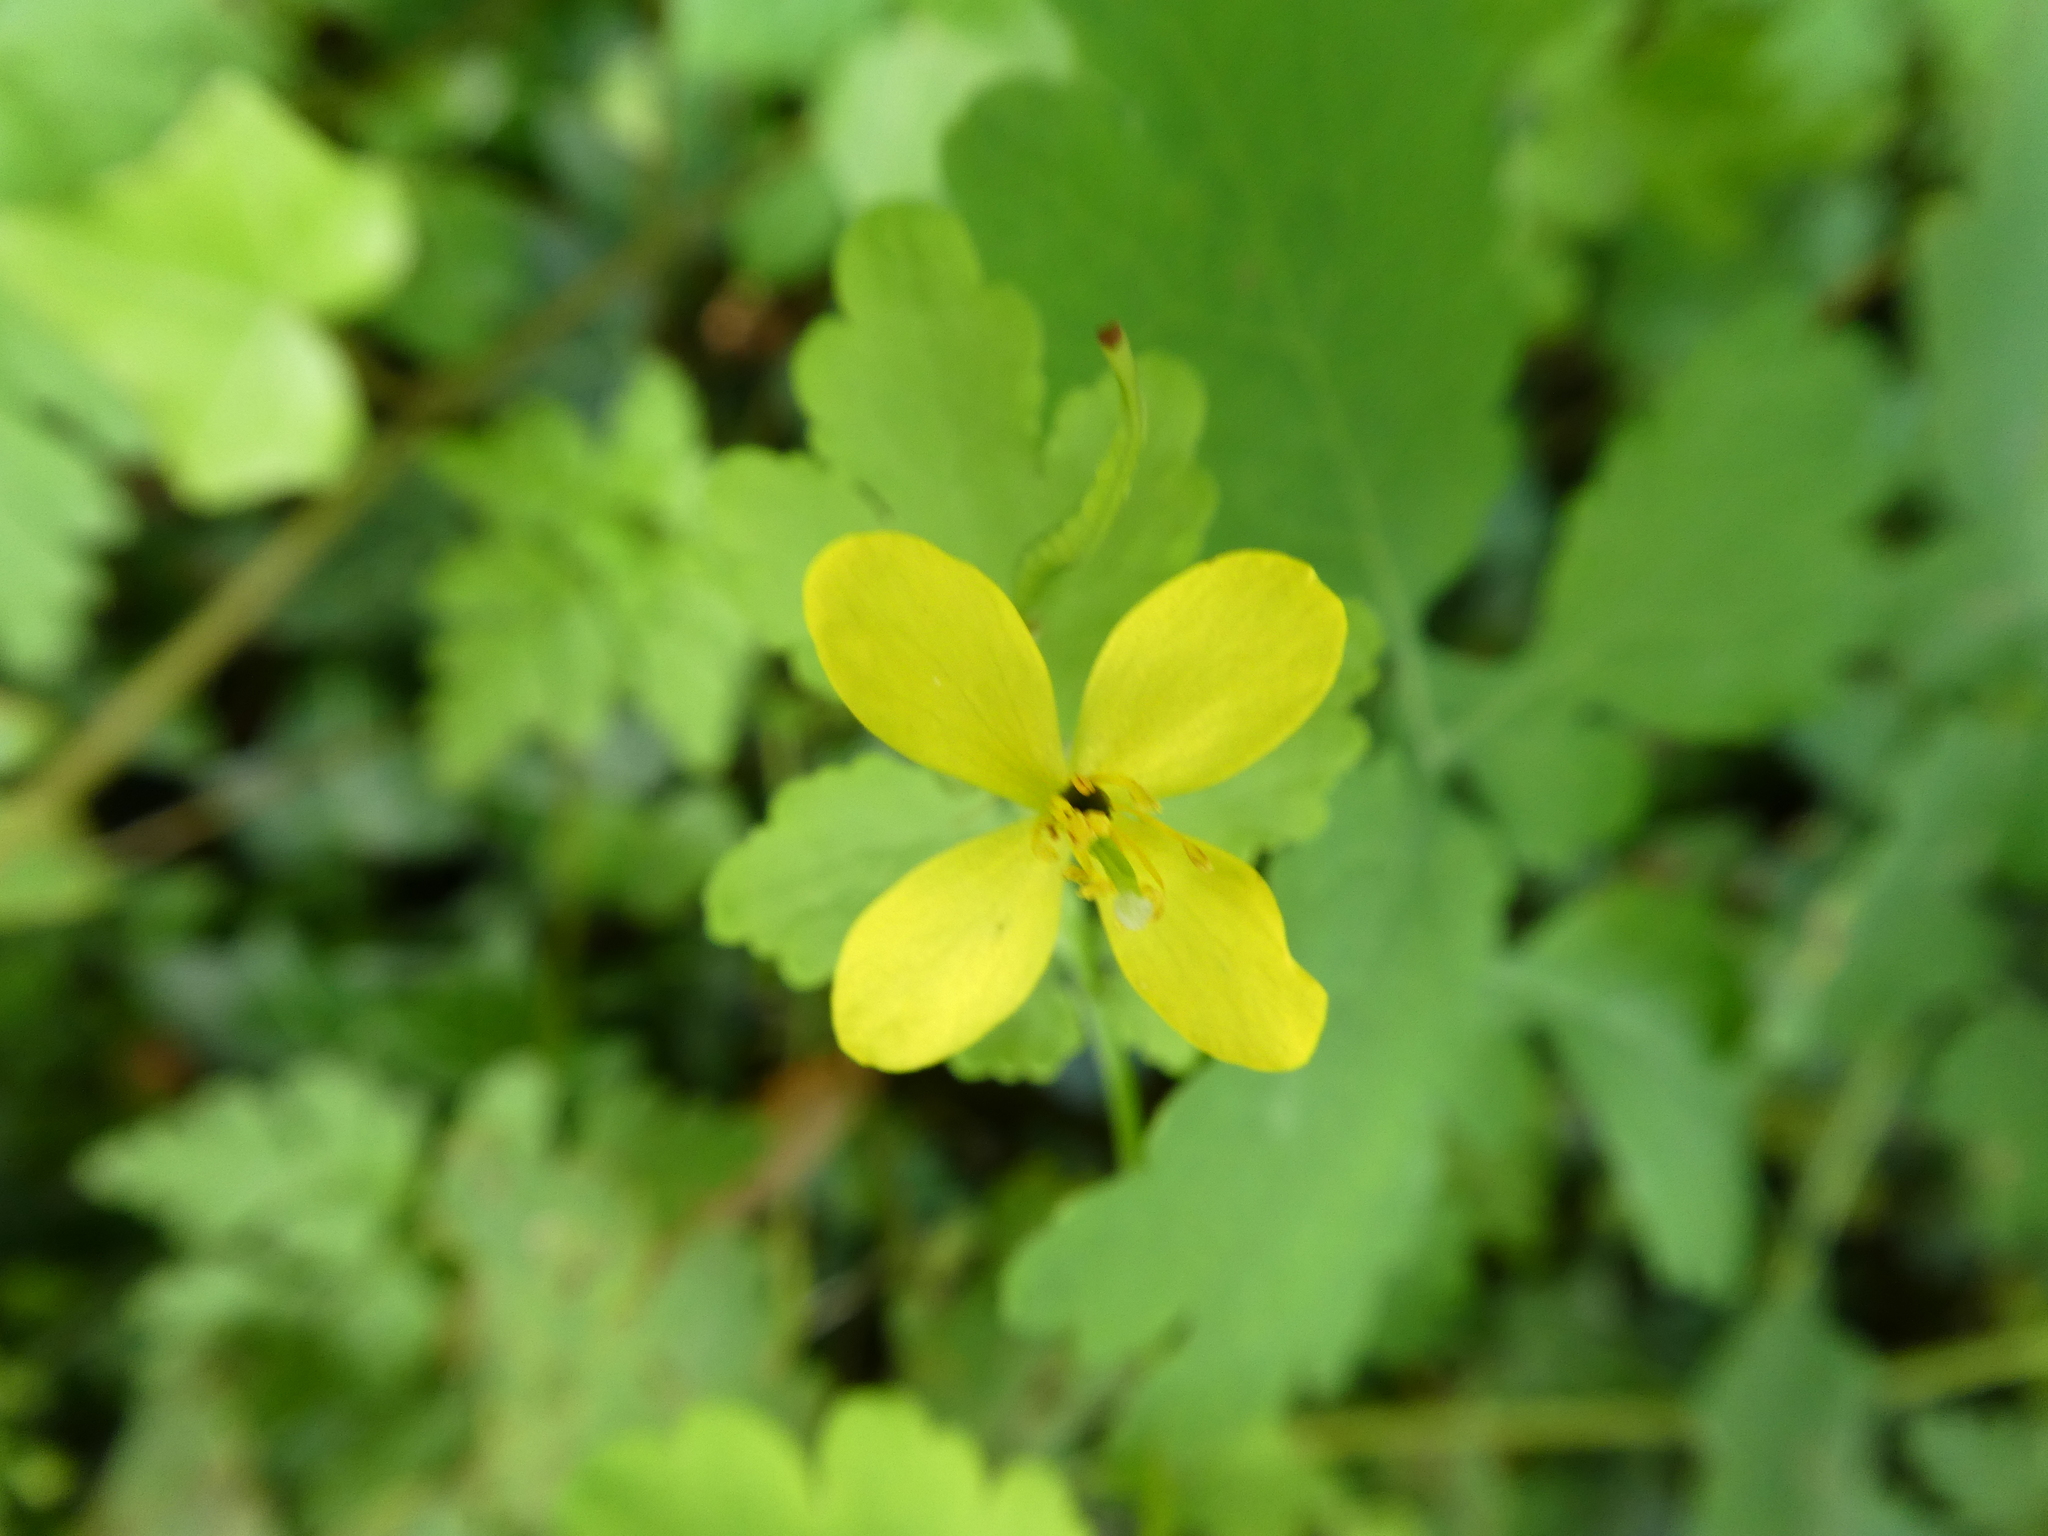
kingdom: Plantae
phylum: Tracheophyta
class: Magnoliopsida
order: Ranunculales
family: Papaveraceae
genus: Chelidonium
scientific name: Chelidonium majus
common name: Greater celandine
